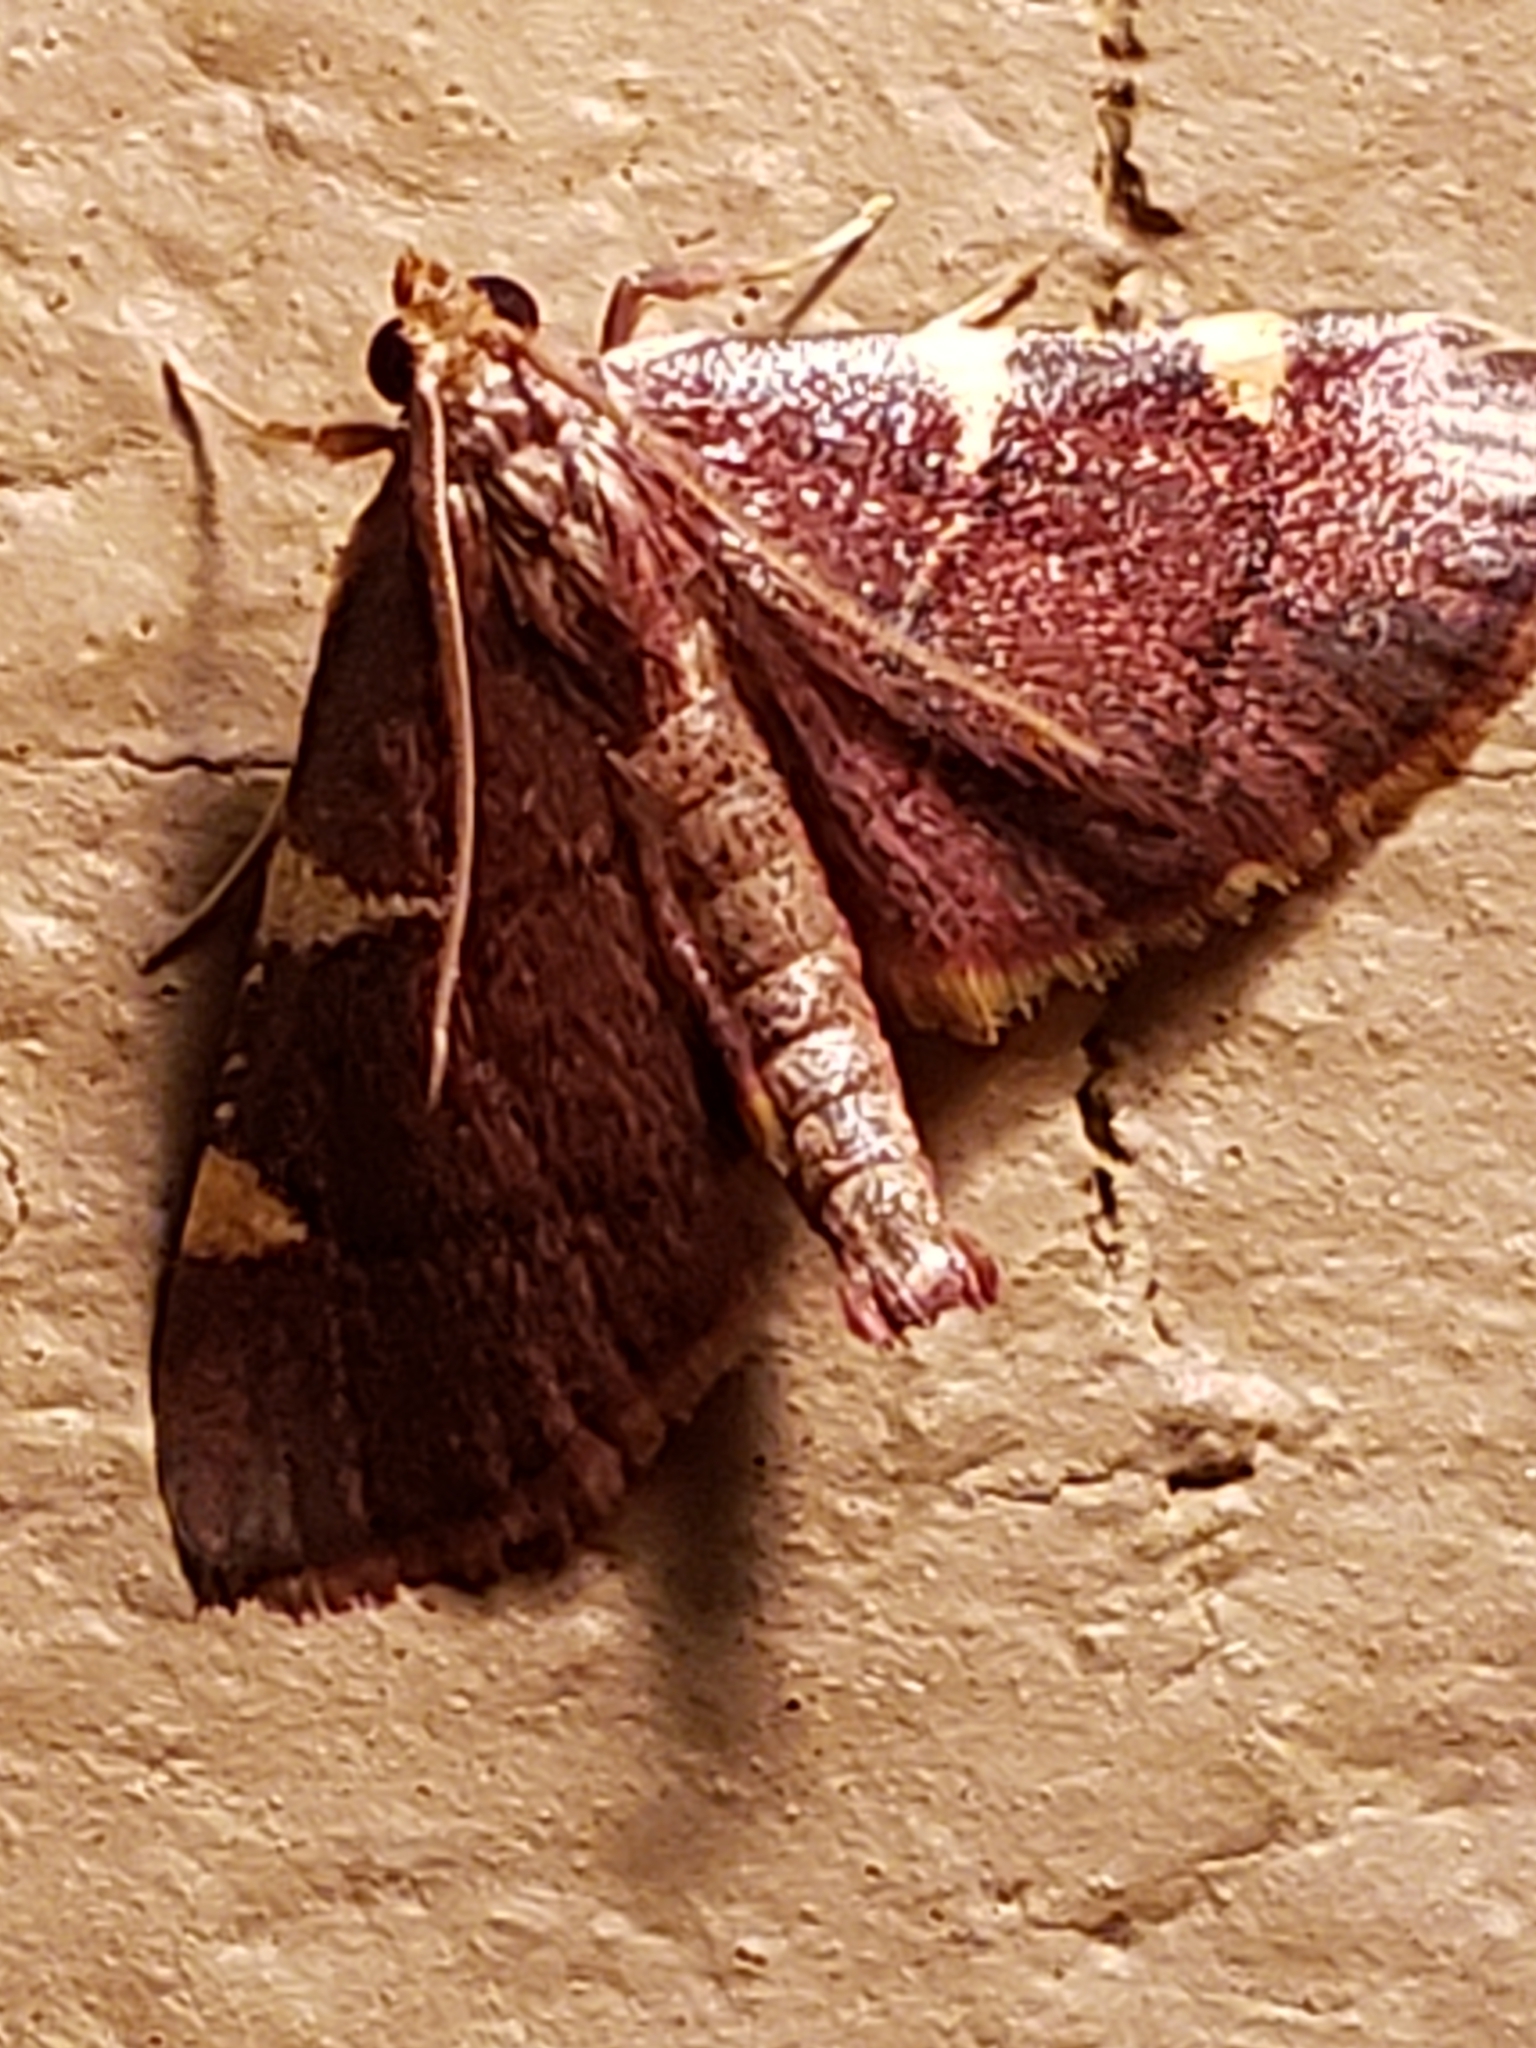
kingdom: Animalia
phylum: Arthropoda
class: Insecta
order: Lepidoptera
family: Pyralidae
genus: Hypsopygia
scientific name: Hypsopygia olinalis
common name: Yellow-fringed dolichomia moth
